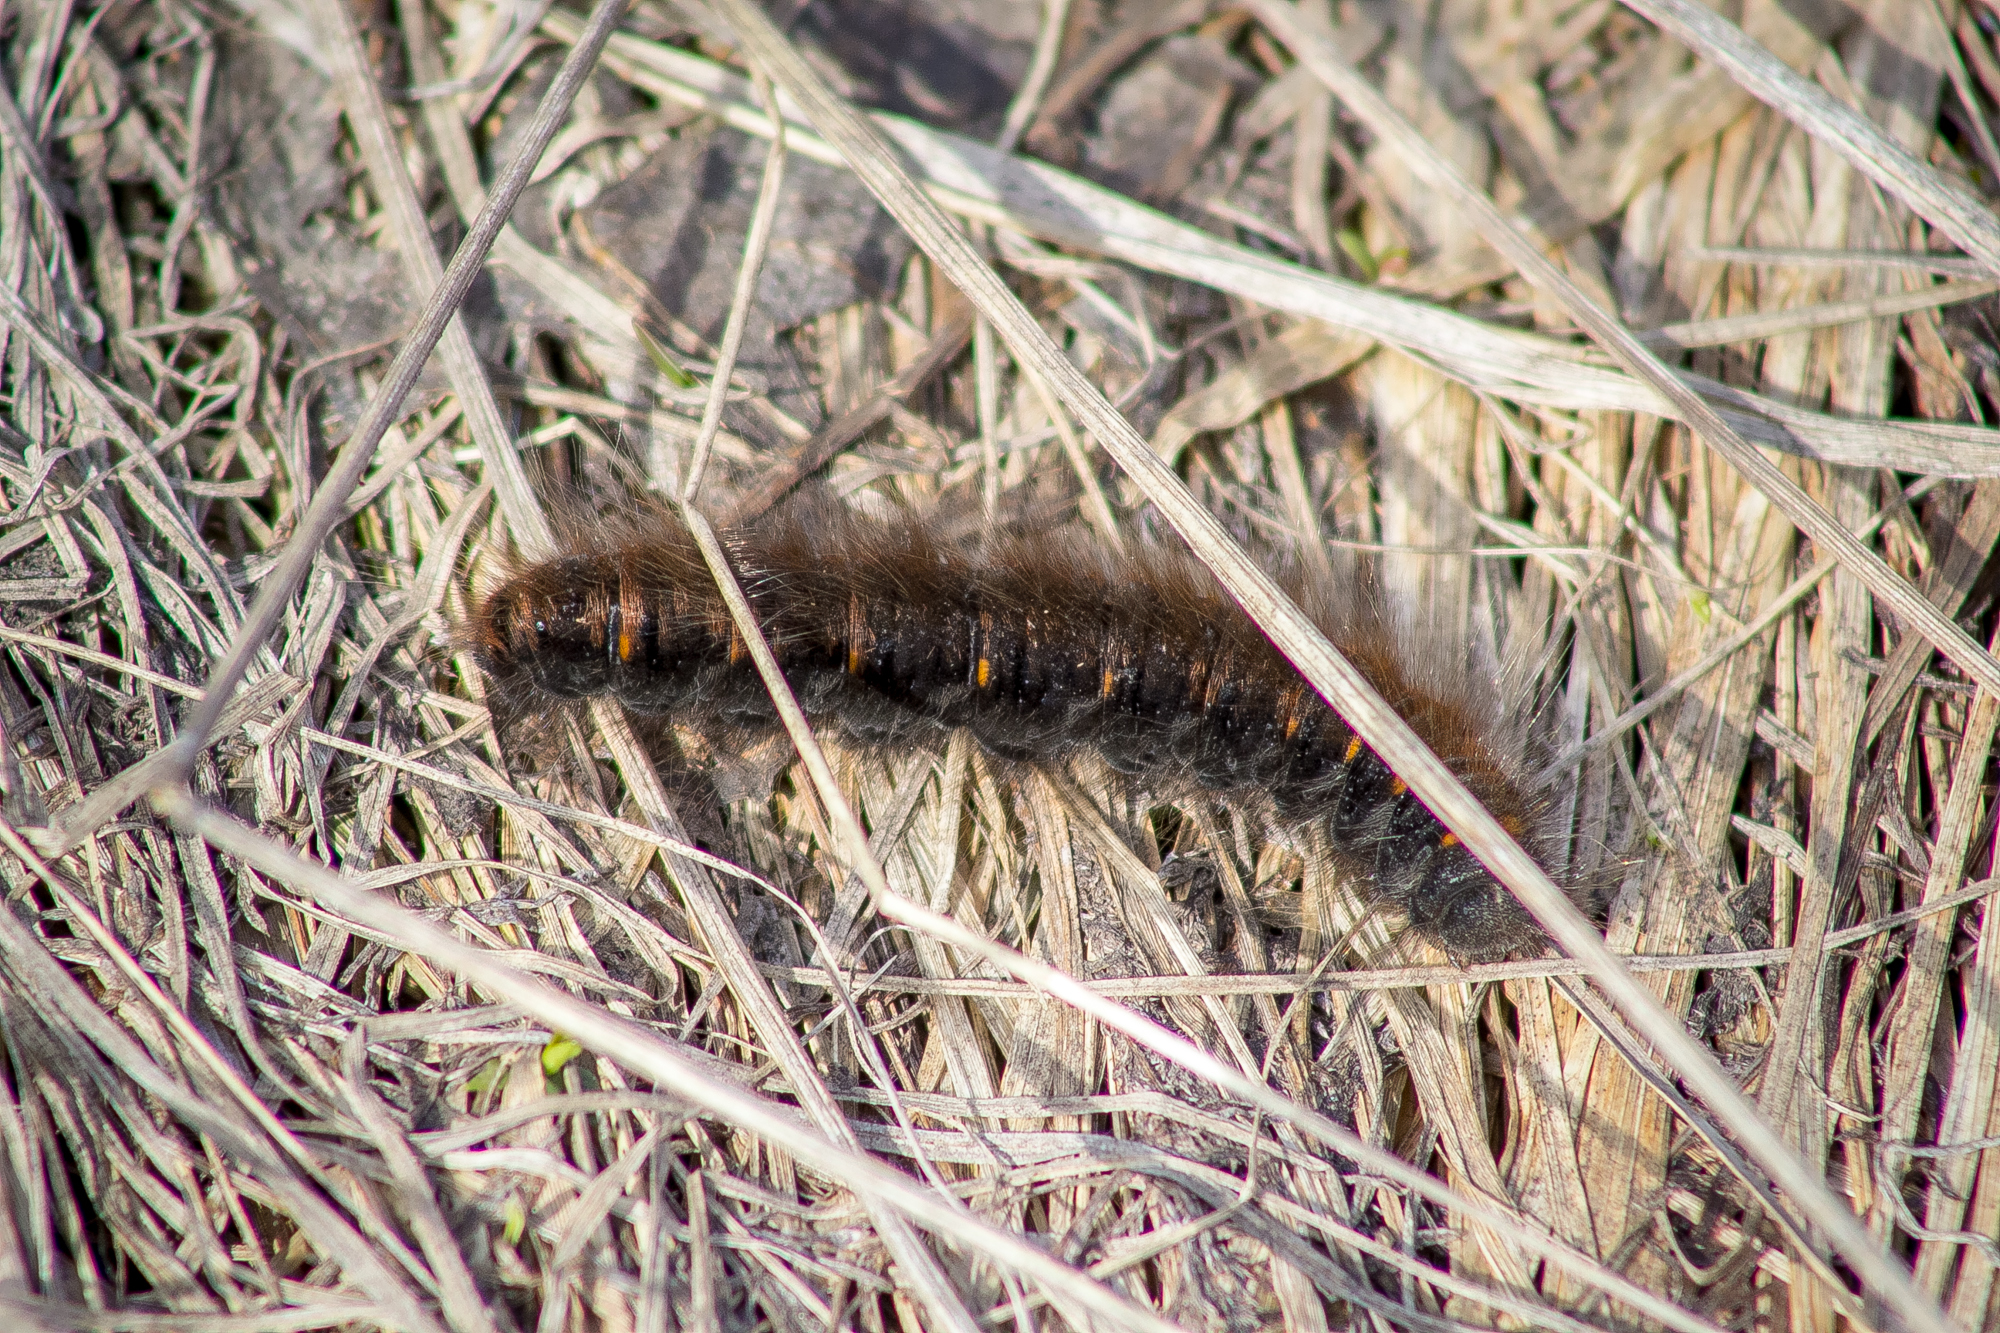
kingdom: Animalia
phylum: Arthropoda
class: Insecta
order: Lepidoptera
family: Lasiocampidae
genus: Macrothylacia
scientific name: Macrothylacia rubi
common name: Fox moth
